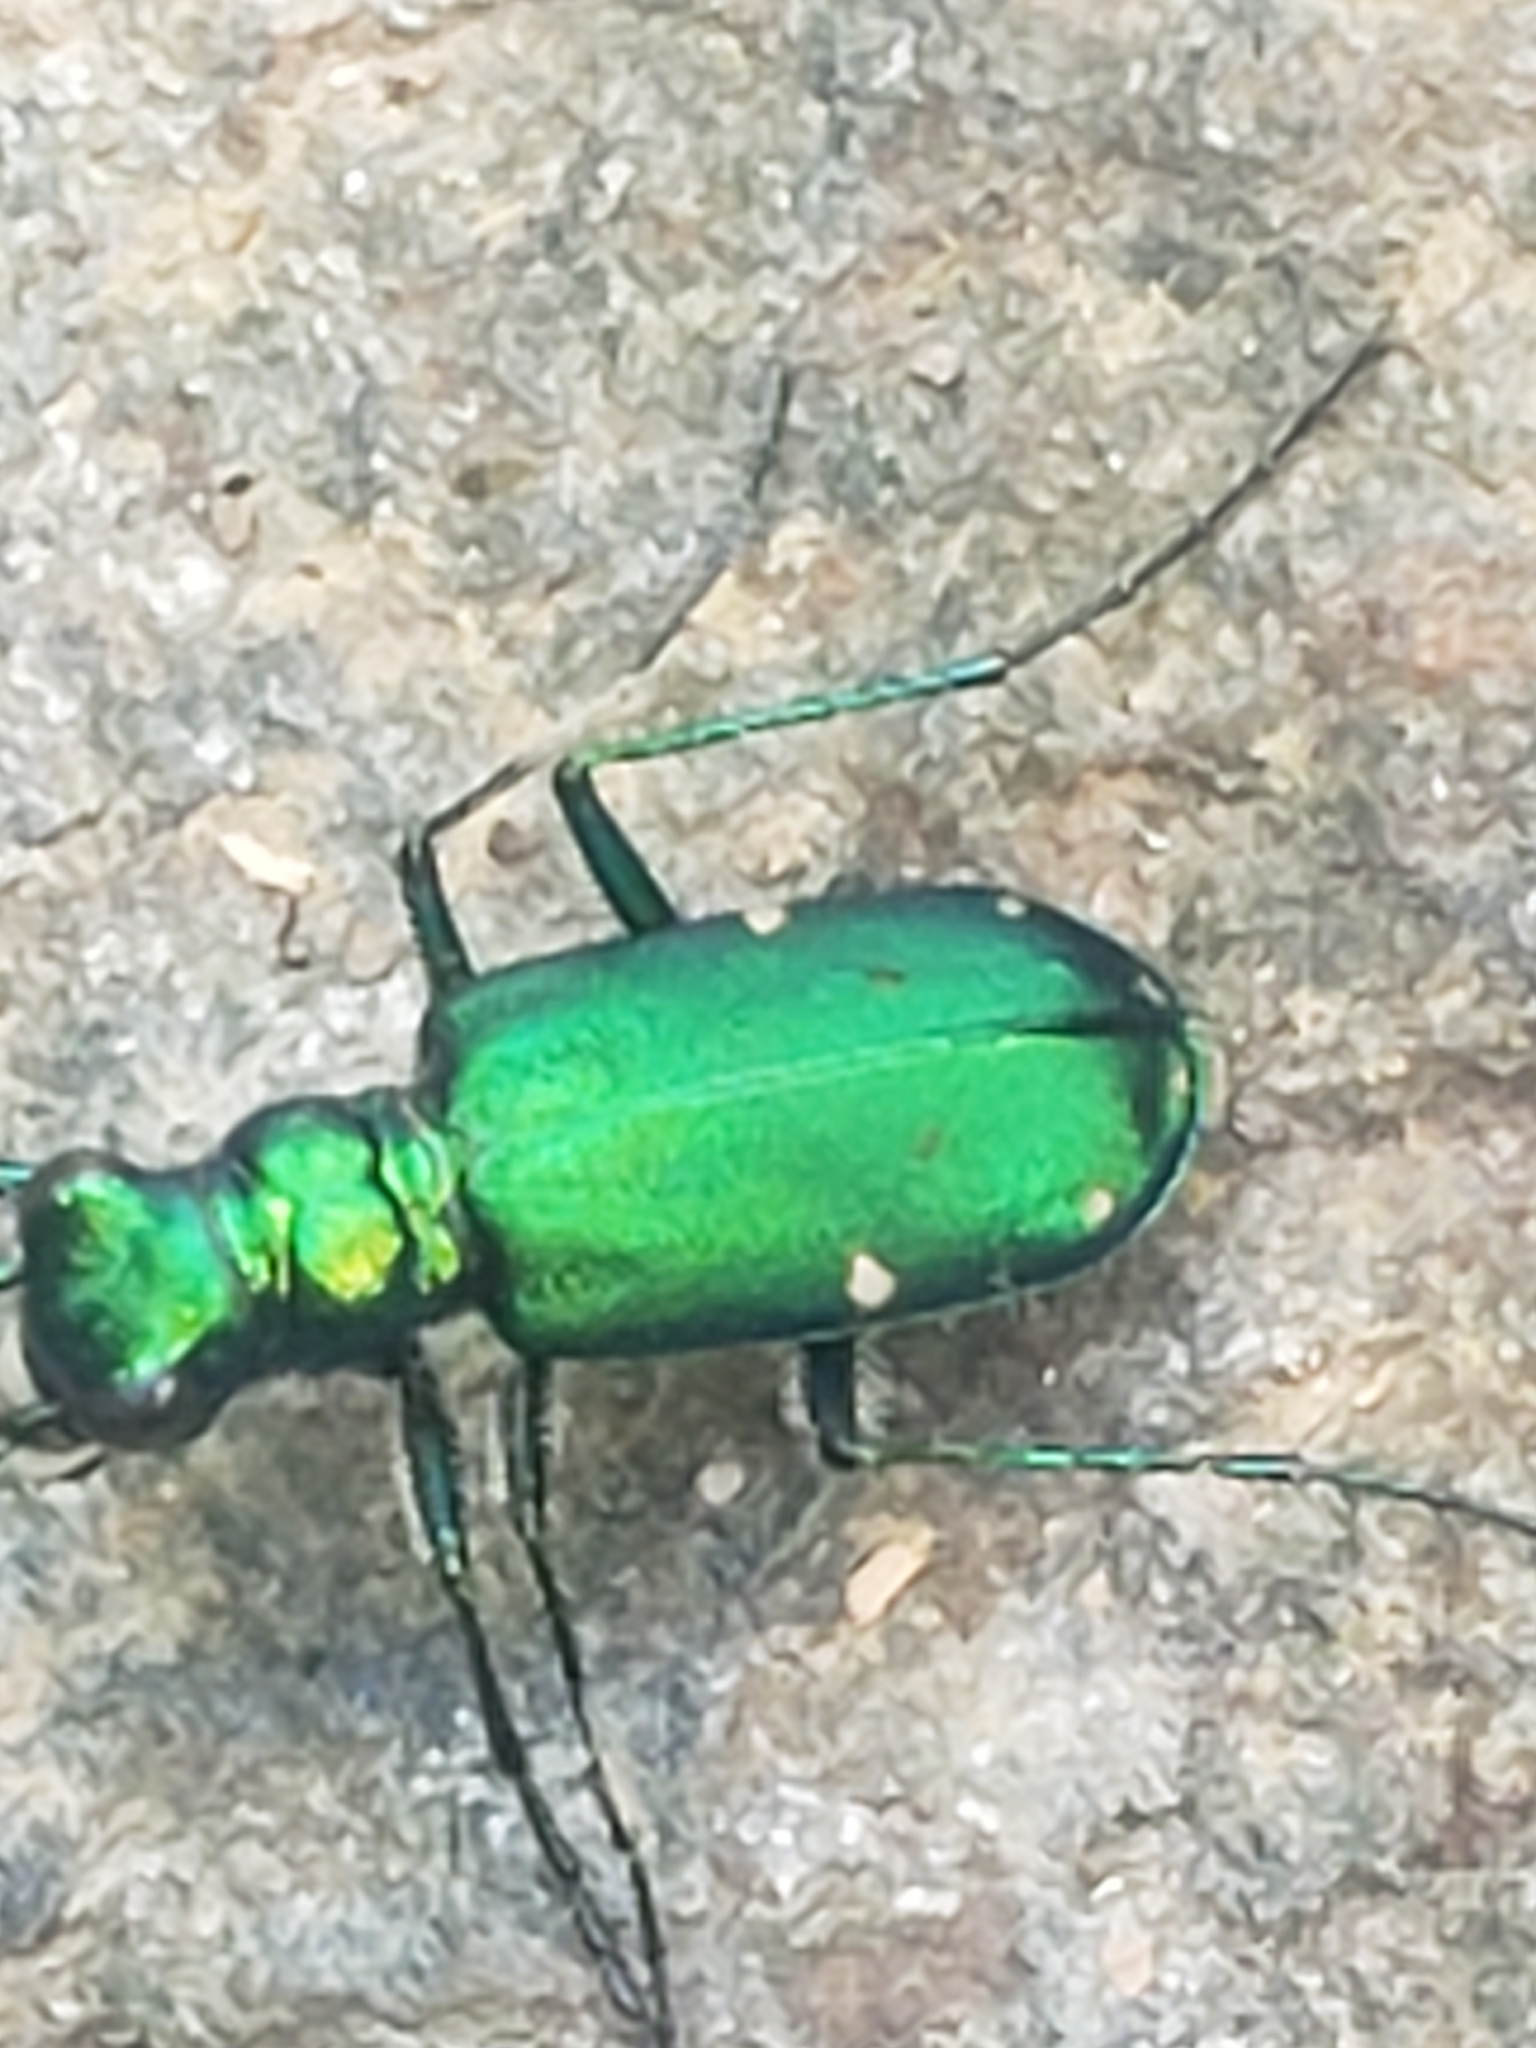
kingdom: Animalia
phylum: Arthropoda
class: Insecta
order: Coleoptera
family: Carabidae
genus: Cicindela
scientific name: Cicindela sexguttata
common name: Six-spotted tiger beetle
